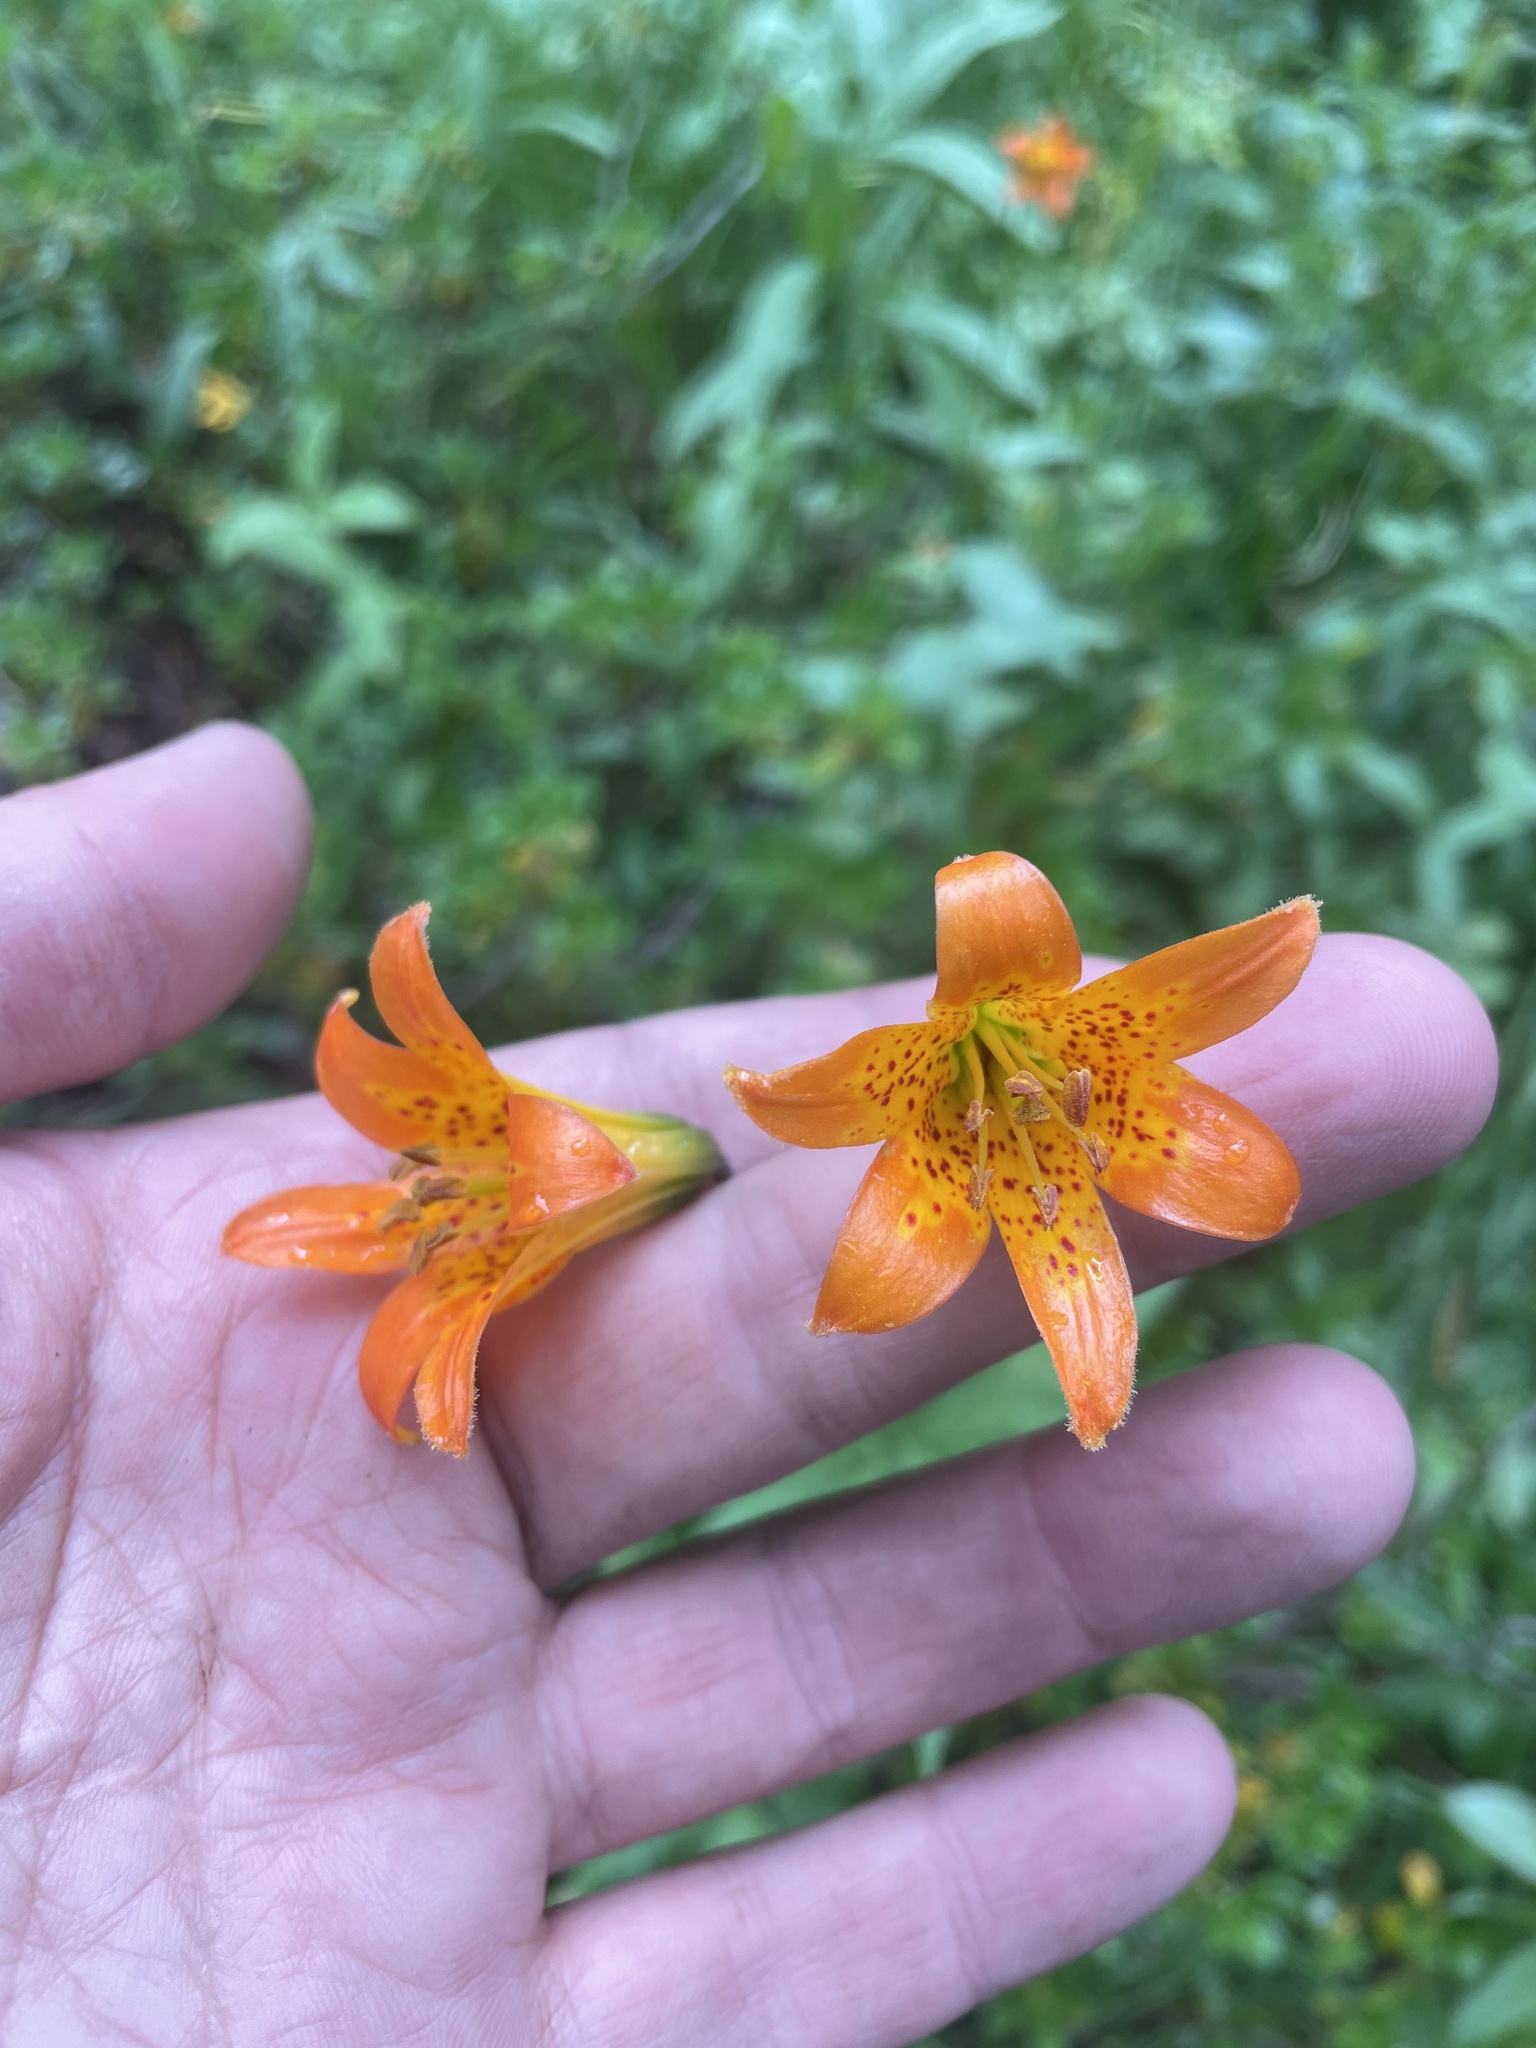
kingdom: Plantae
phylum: Tracheophyta
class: Liliopsida
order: Liliales
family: Liliaceae
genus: Lilium
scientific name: Lilium parvum
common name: Alpine lily
